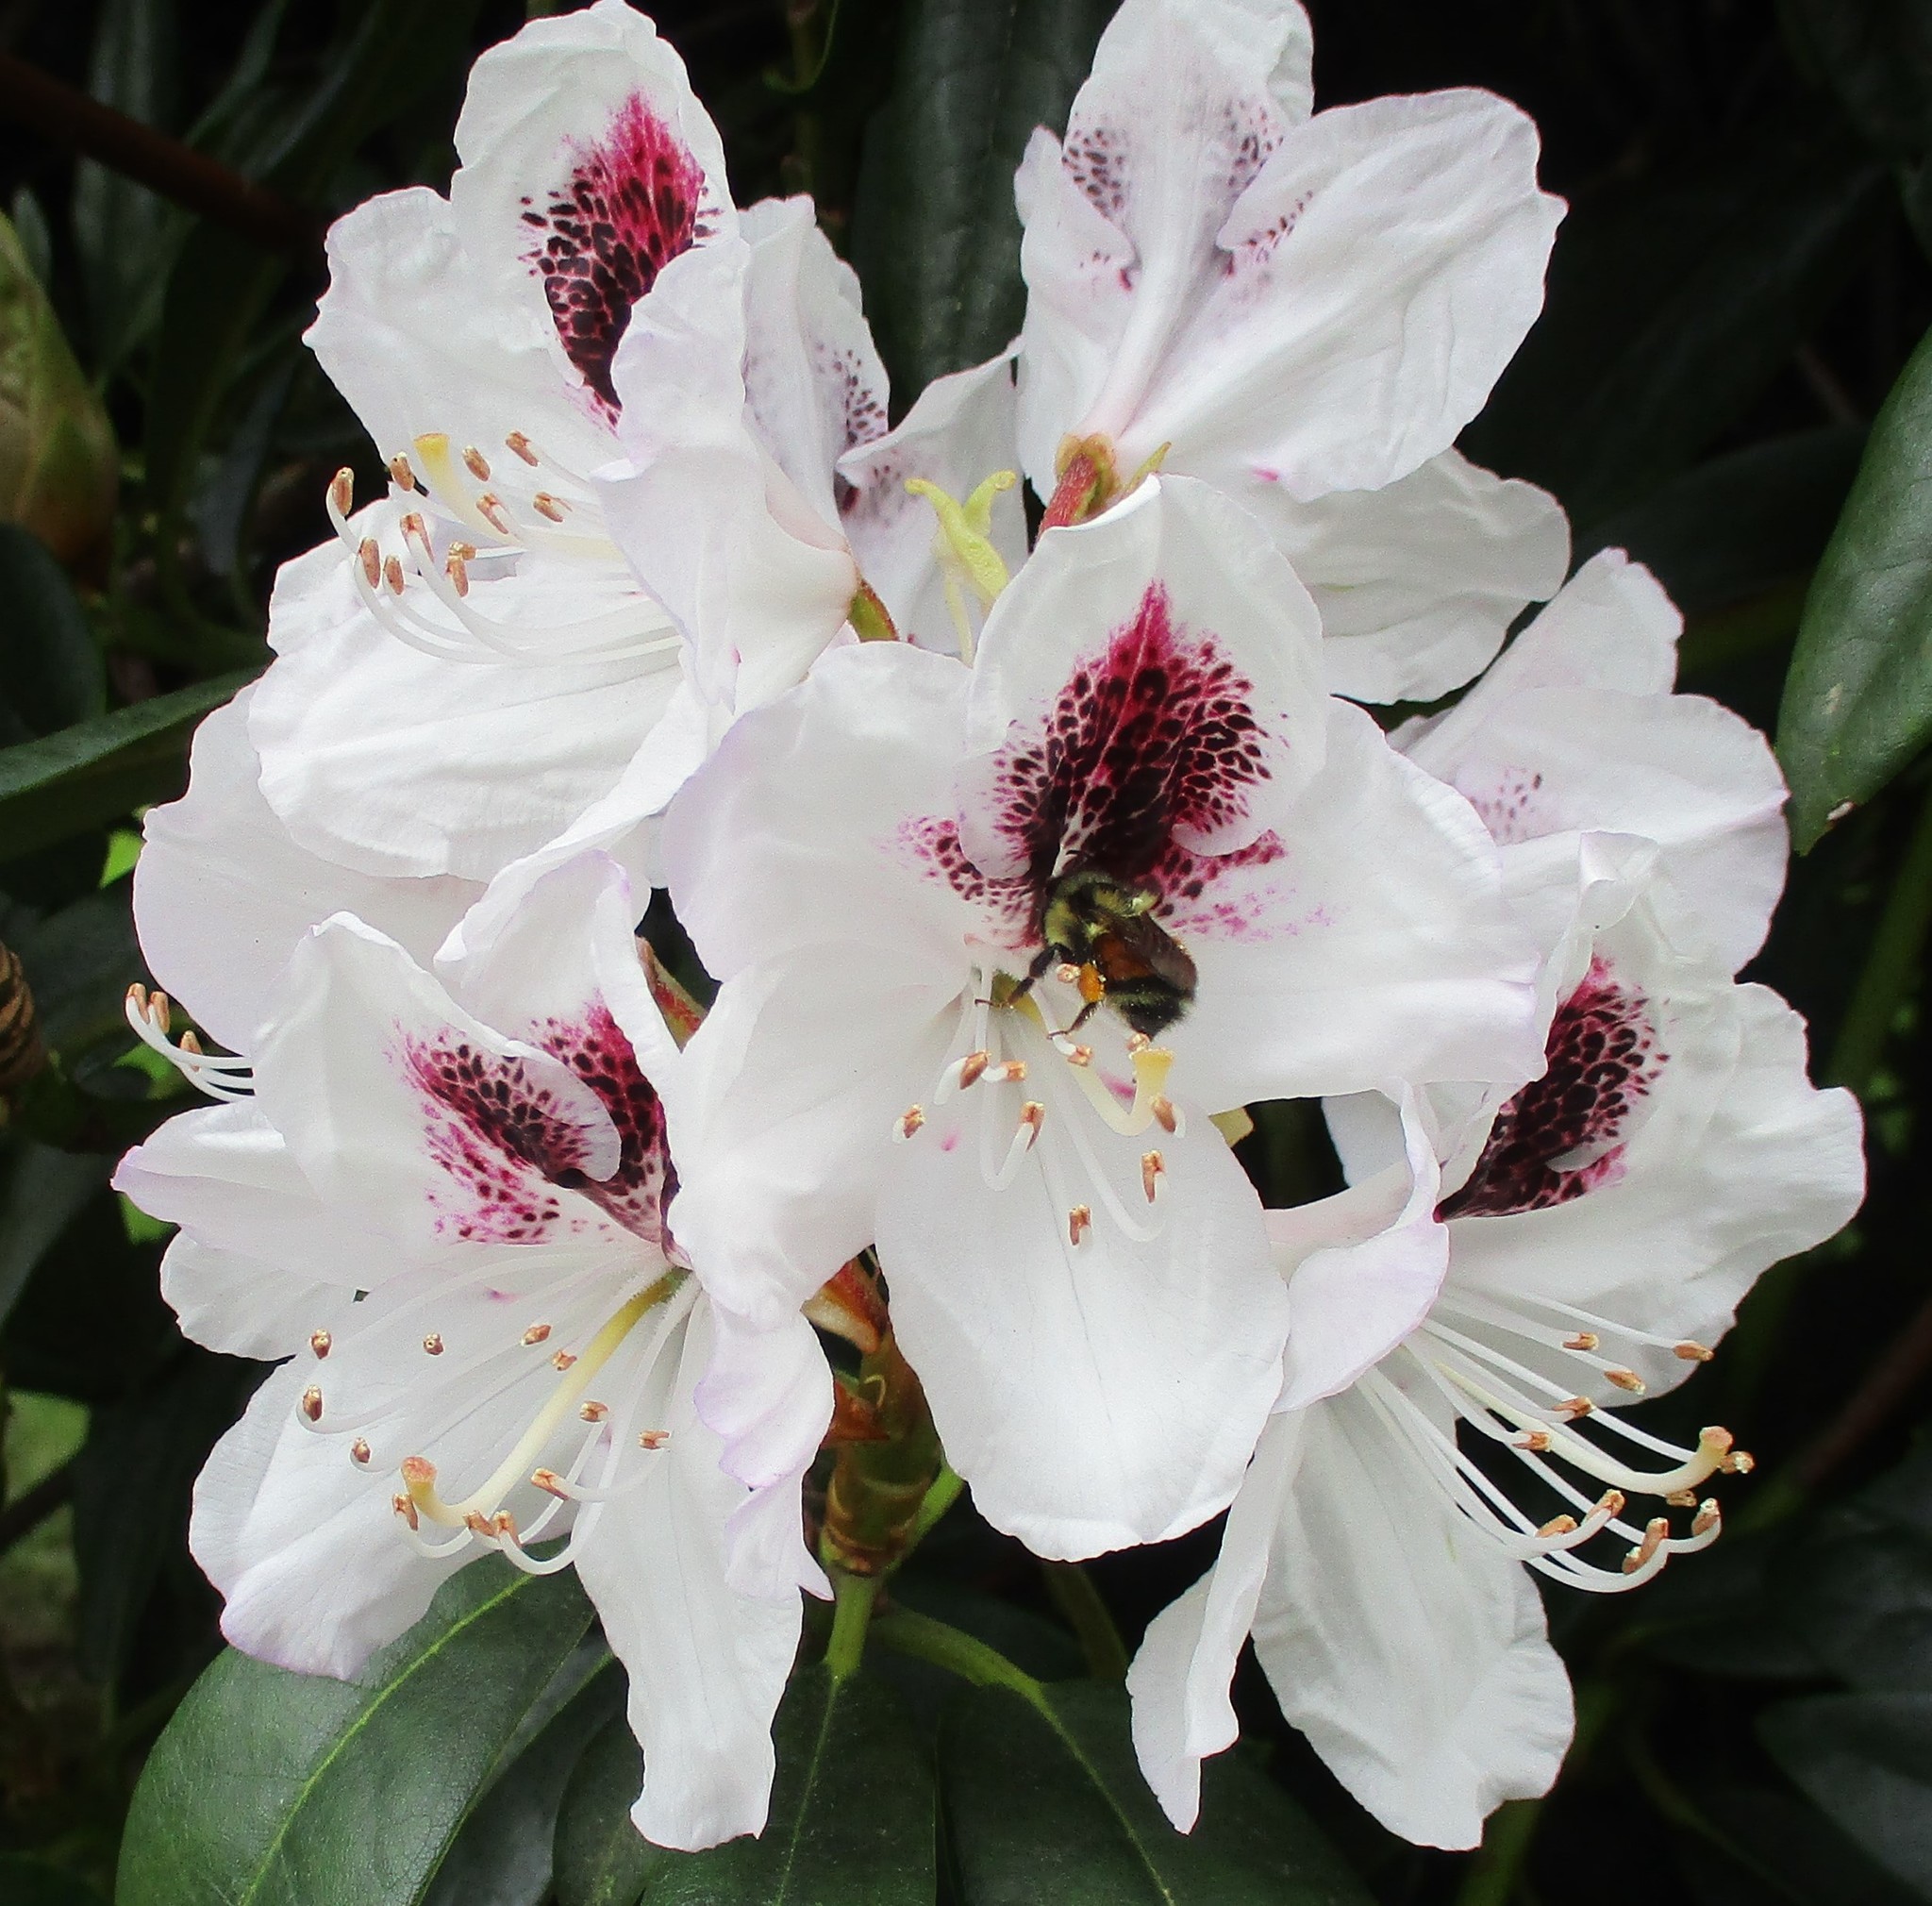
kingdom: Animalia
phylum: Arthropoda
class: Insecta
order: Hymenoptera
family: Apidae
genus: Bombus
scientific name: Bombus melanopygus
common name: Black tail bumble bee
